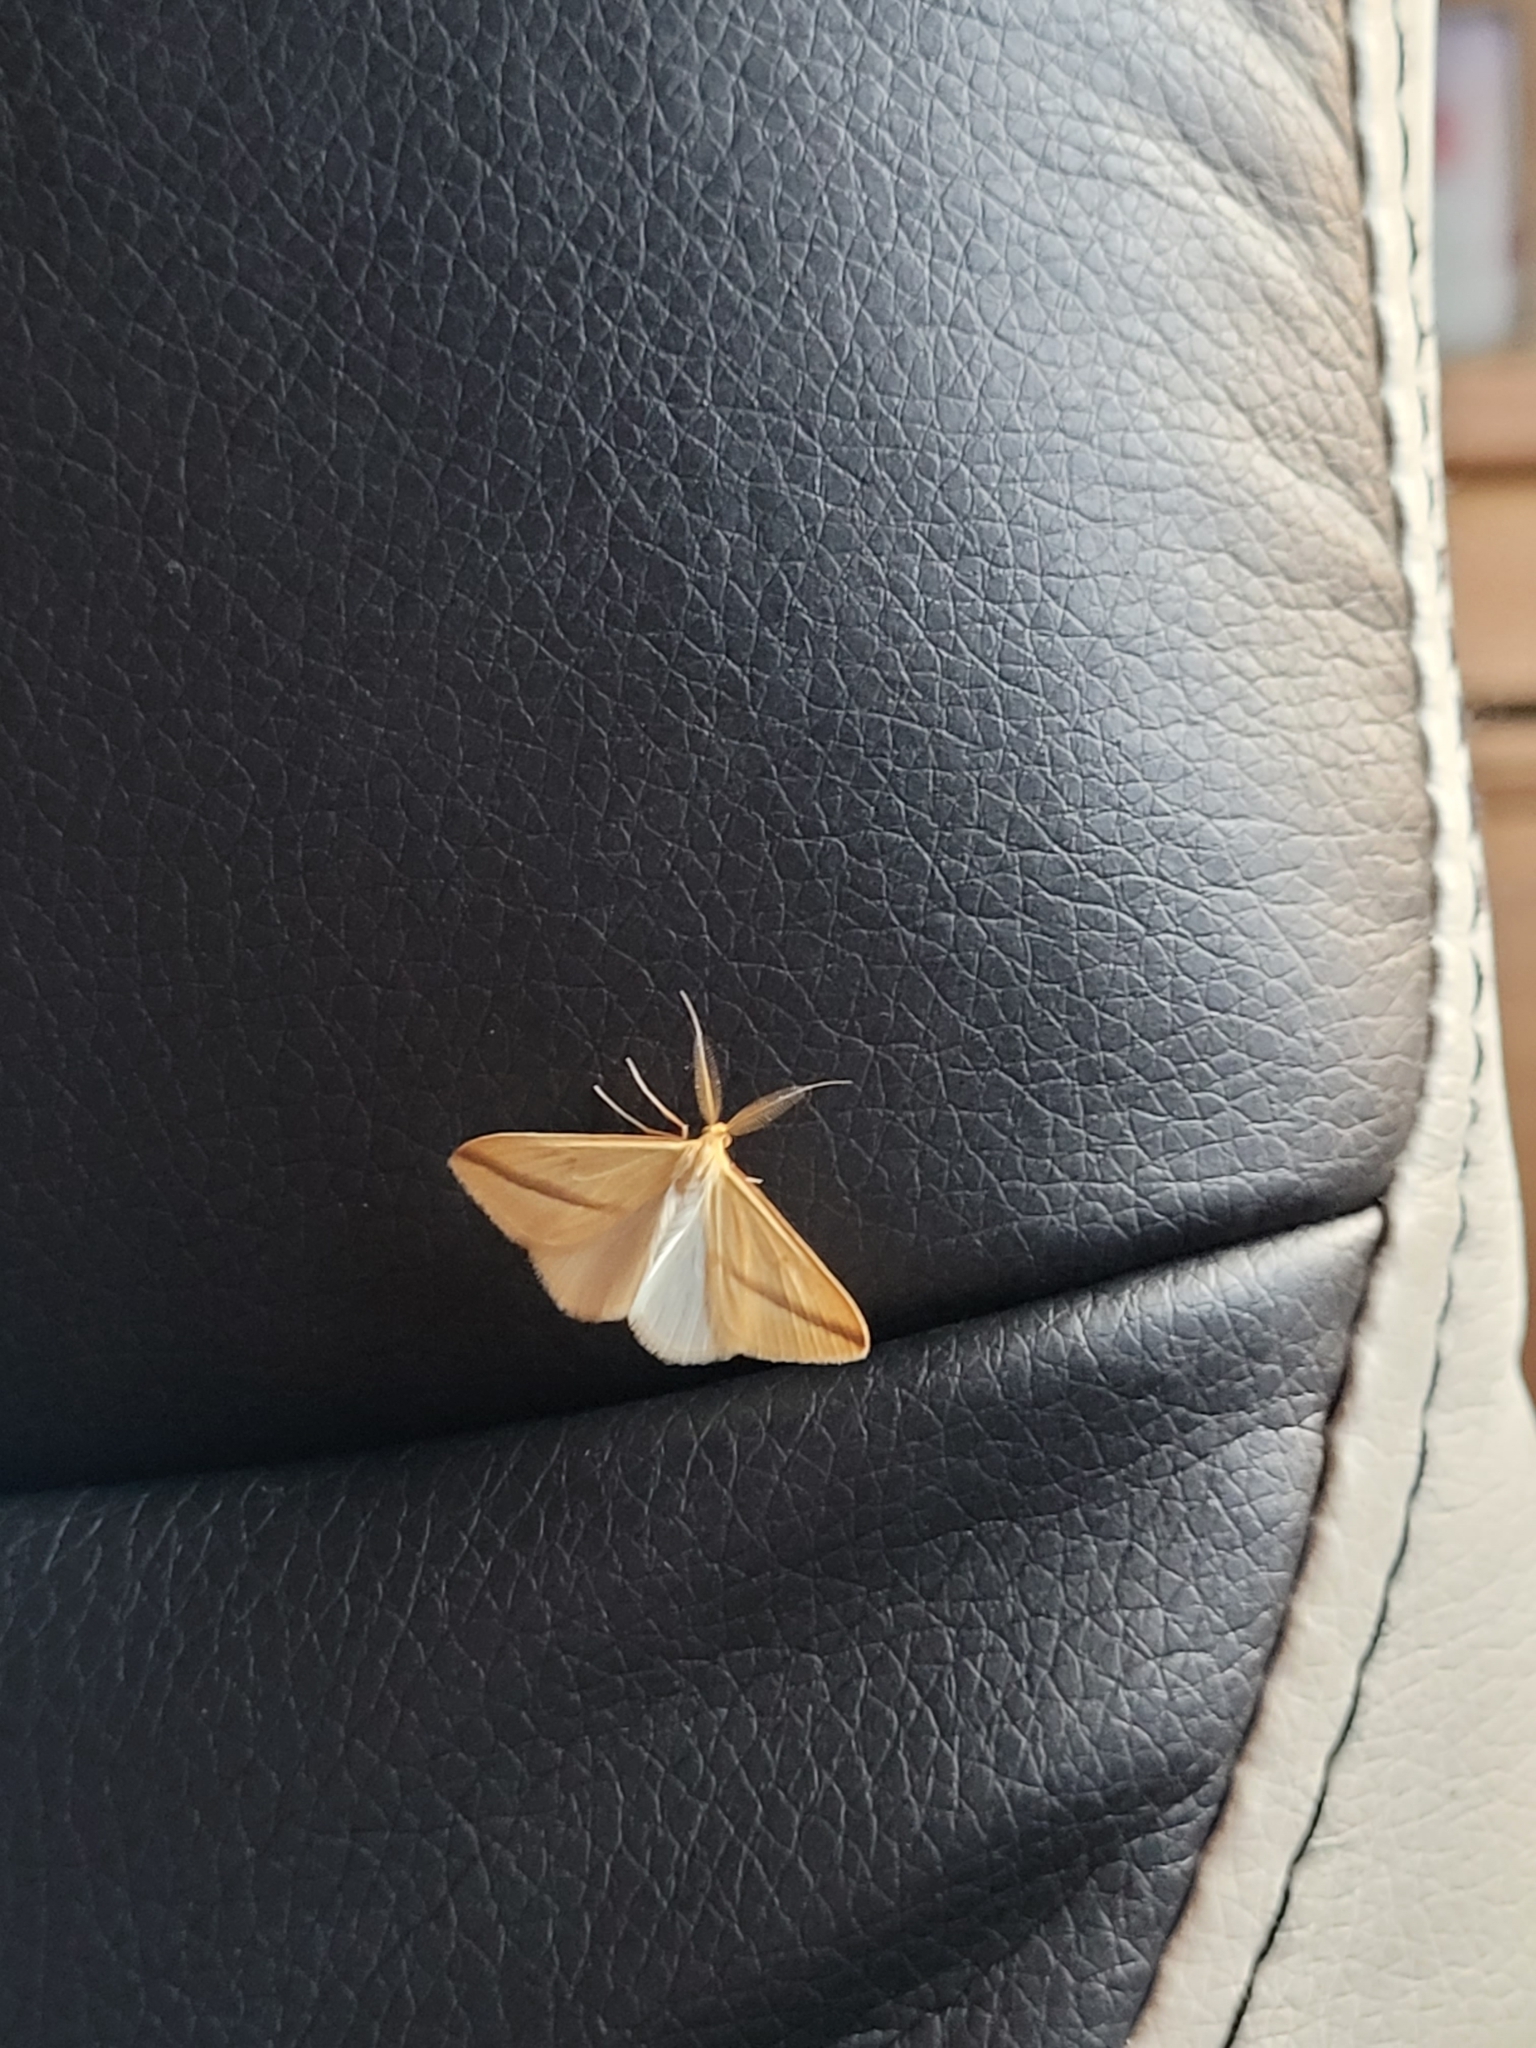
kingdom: Animalia
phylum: Arthropoda
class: Insecta
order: Lepidoptera
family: Geometridae
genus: Rhodometra
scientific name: Rhodometra sacraria
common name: Vestal
